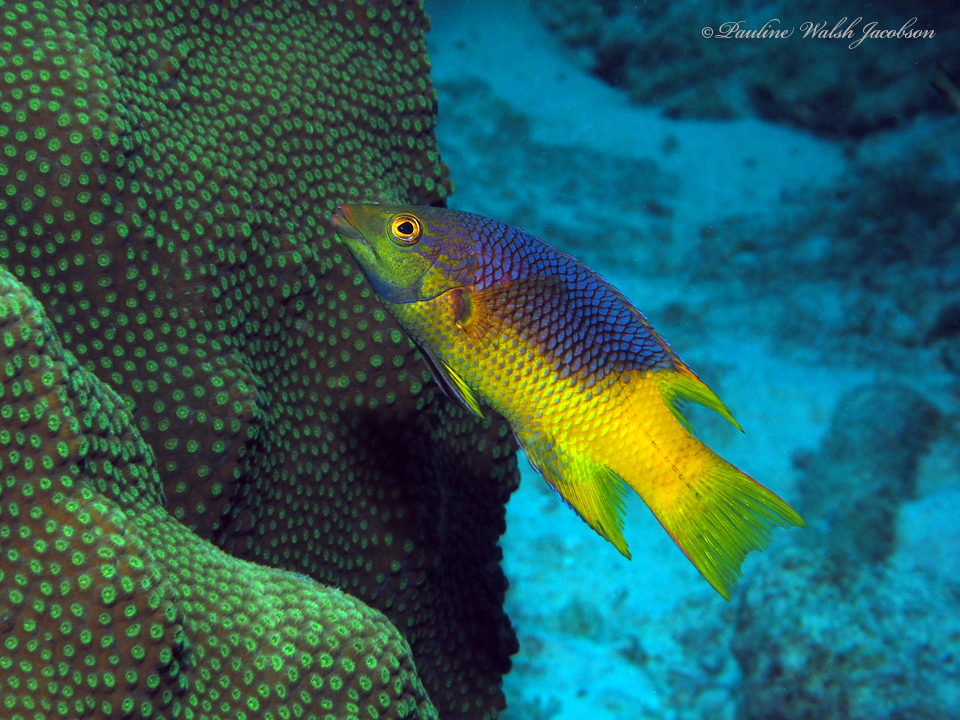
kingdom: Animalia
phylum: Chordata
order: Perciformes
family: Labridae
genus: Bodianus
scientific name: Bodianus rufus
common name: Spanish hogfish
